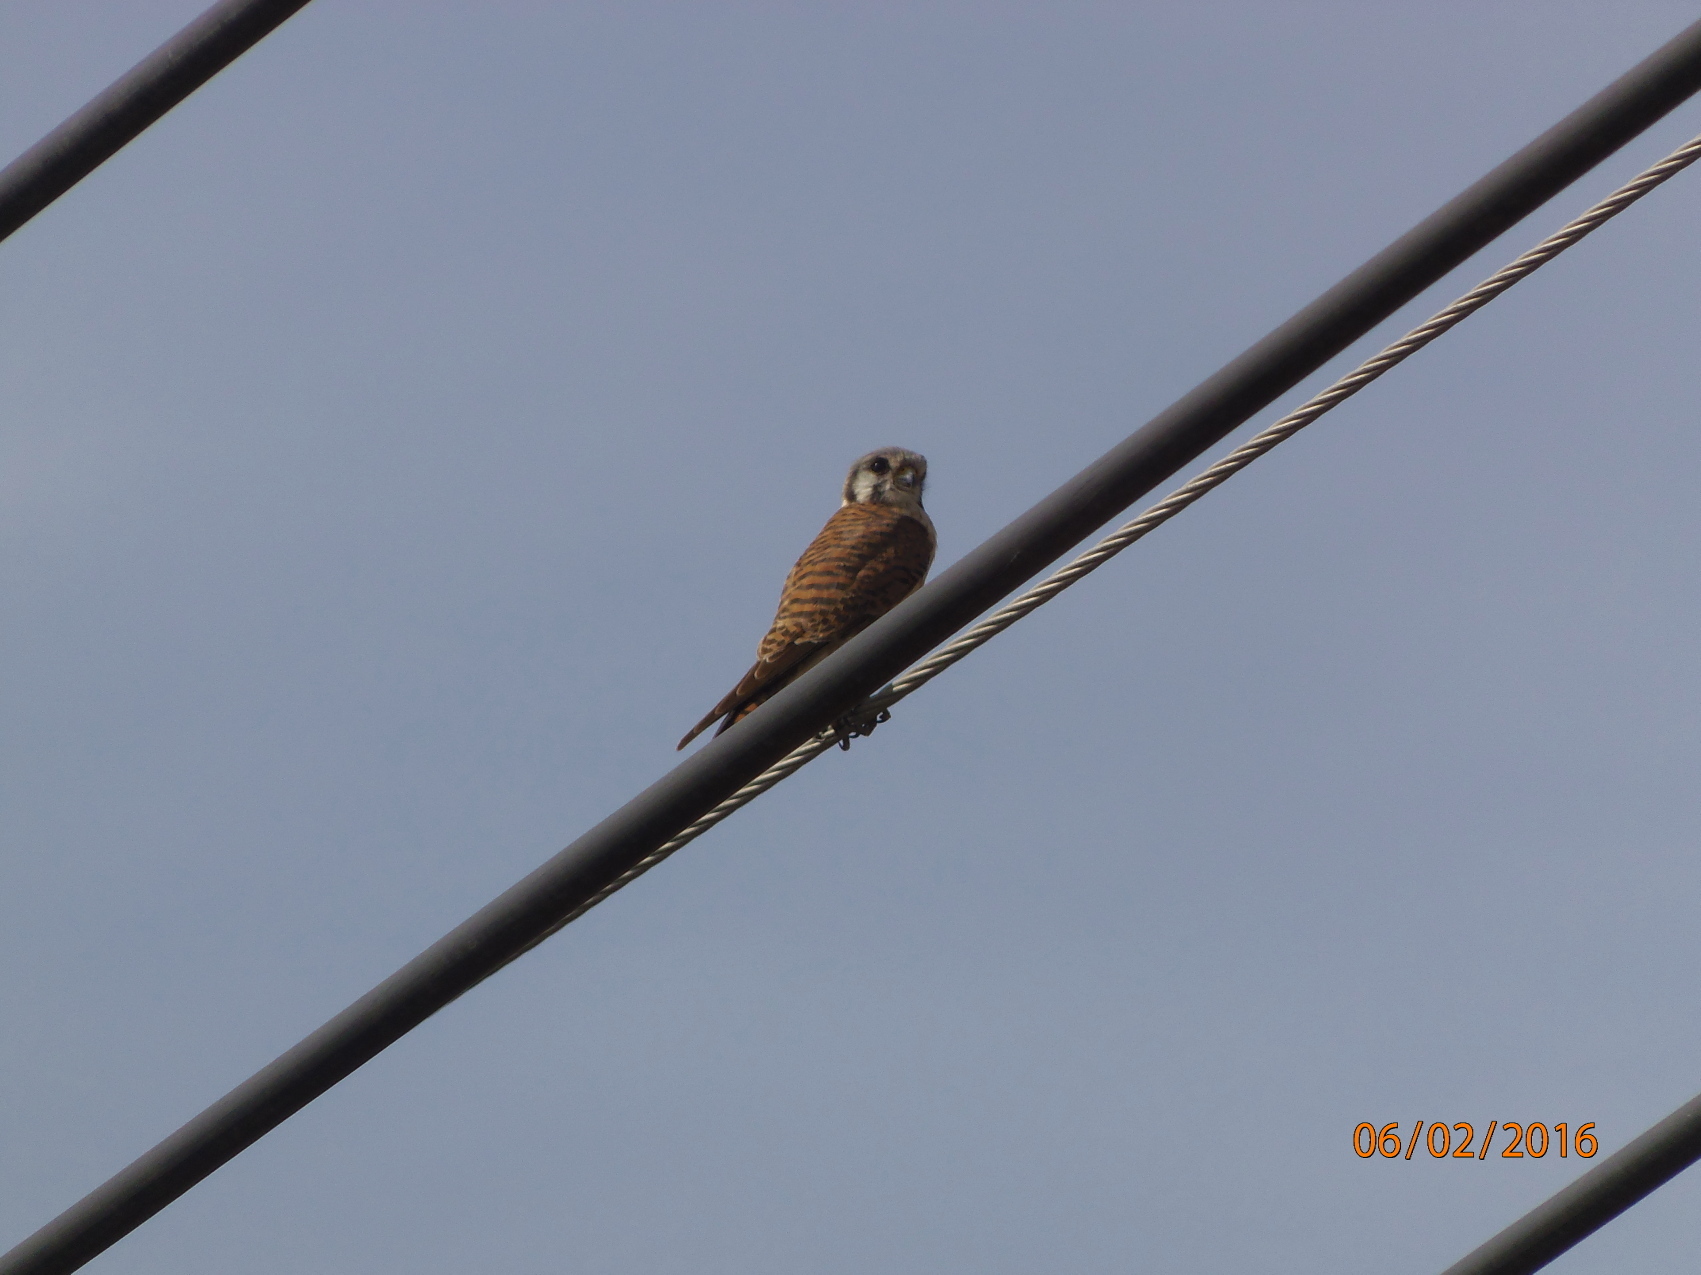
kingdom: Animalia
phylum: Chordata
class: Aves
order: Falconiformes
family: Falconidae
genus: Falco
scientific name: Falco sparverius
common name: American kestrel
